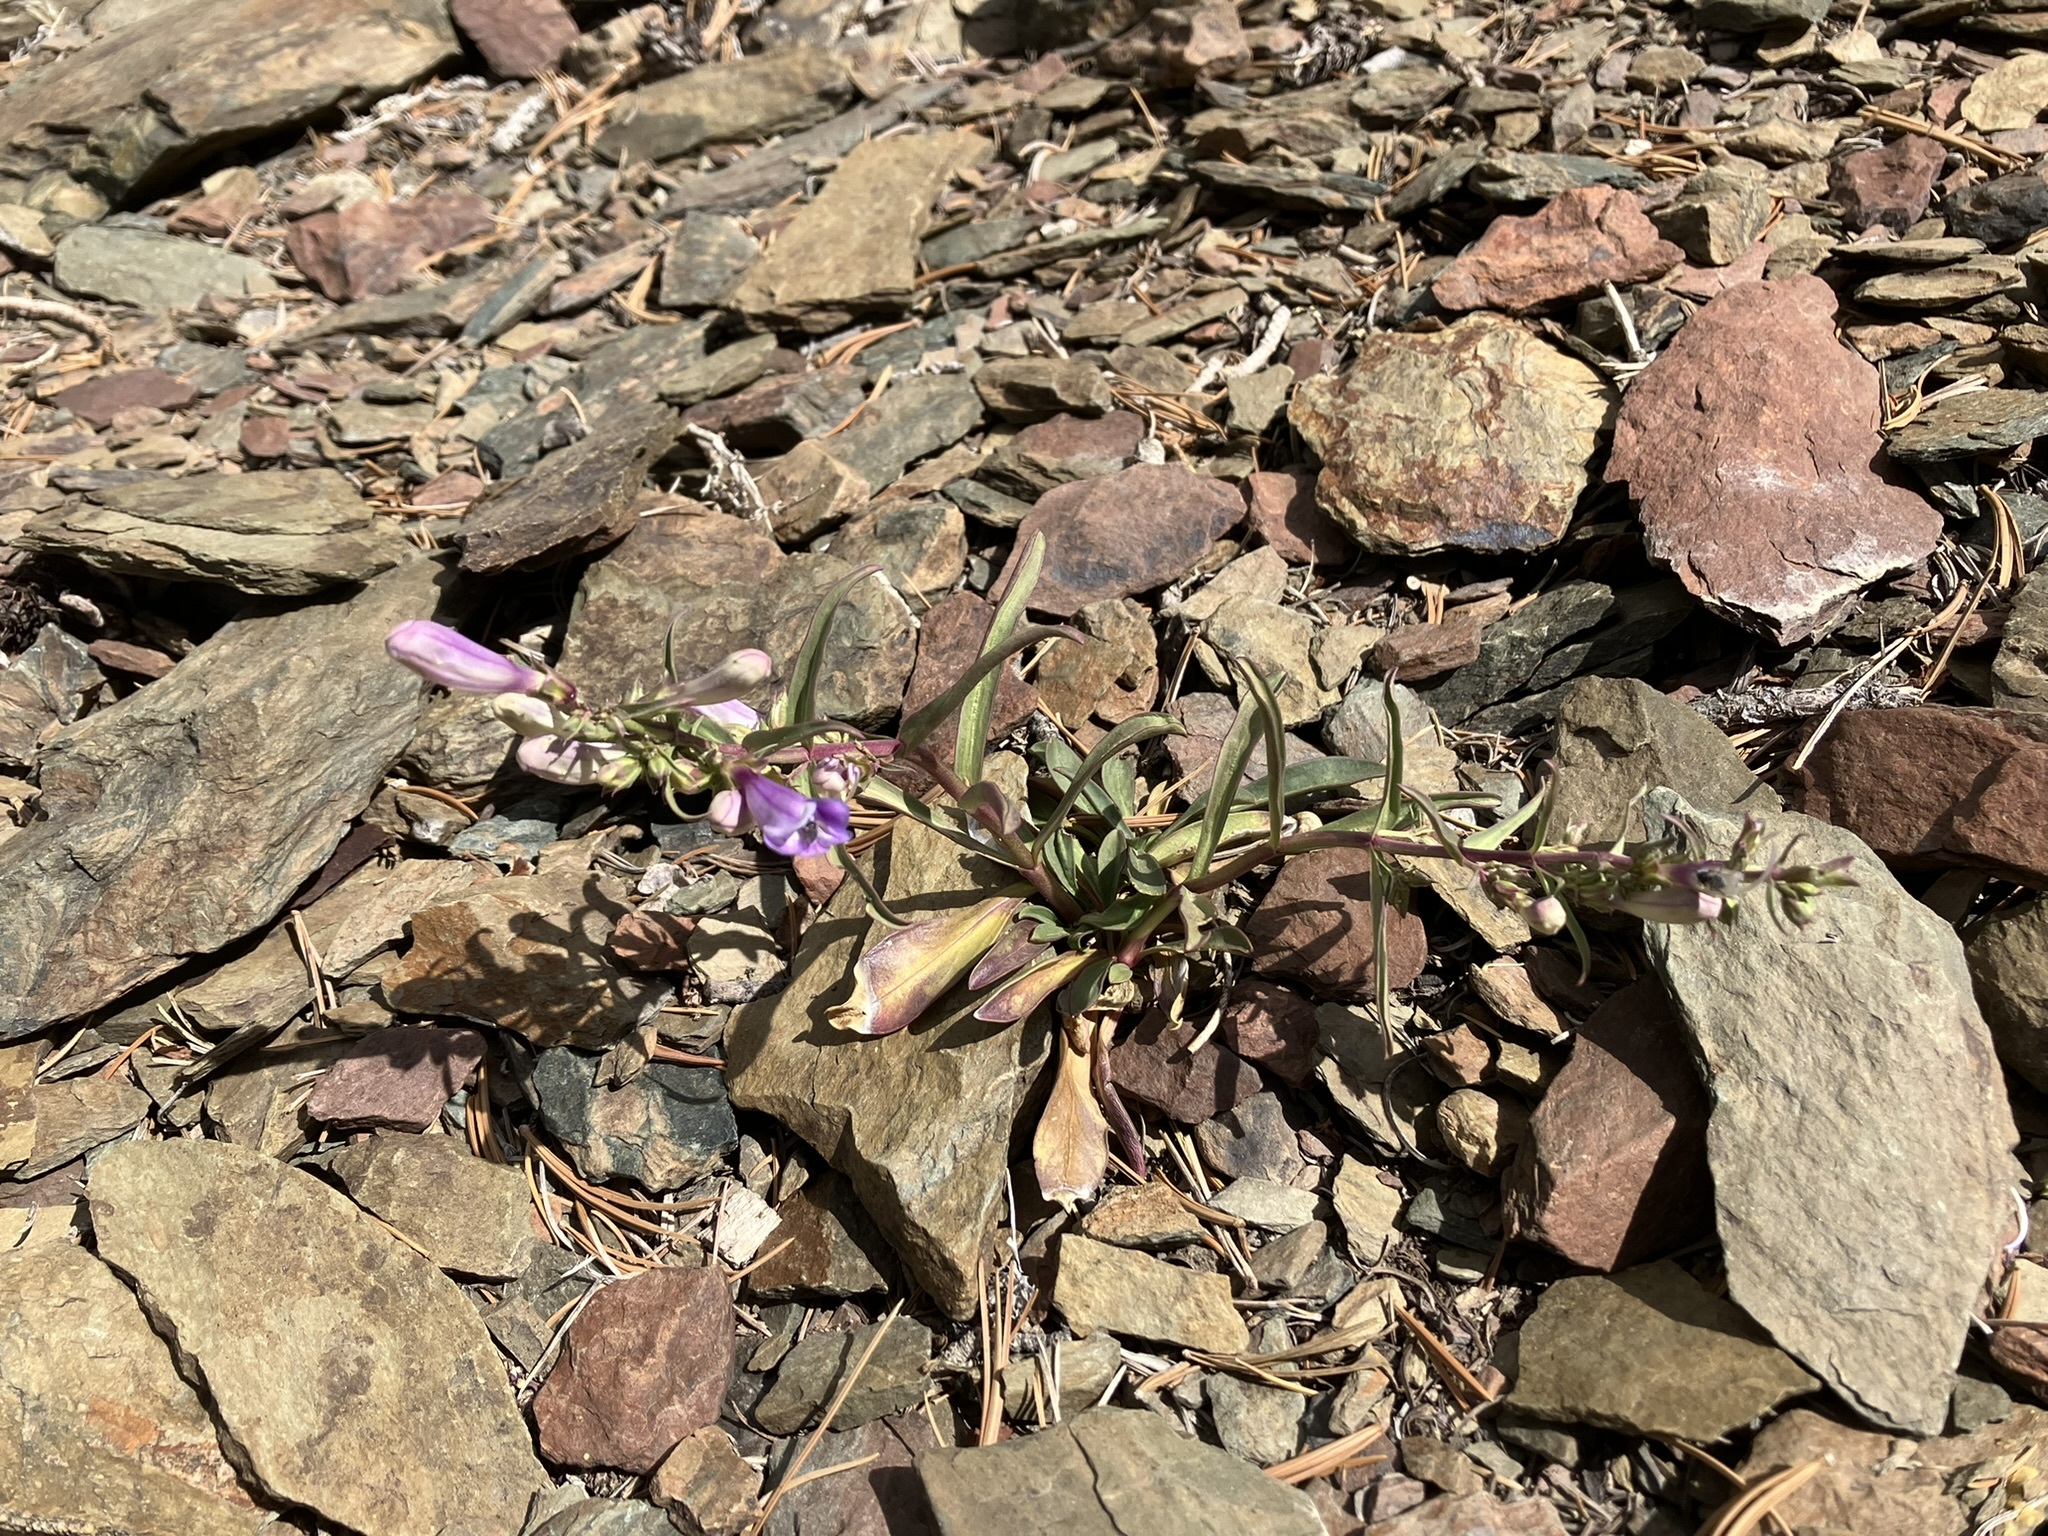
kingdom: Plantae
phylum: Tracheophyta
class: Magnoliopsida
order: Lamiales
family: Plantaginaceae
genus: Penstemon
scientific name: Penstemon speciosus
